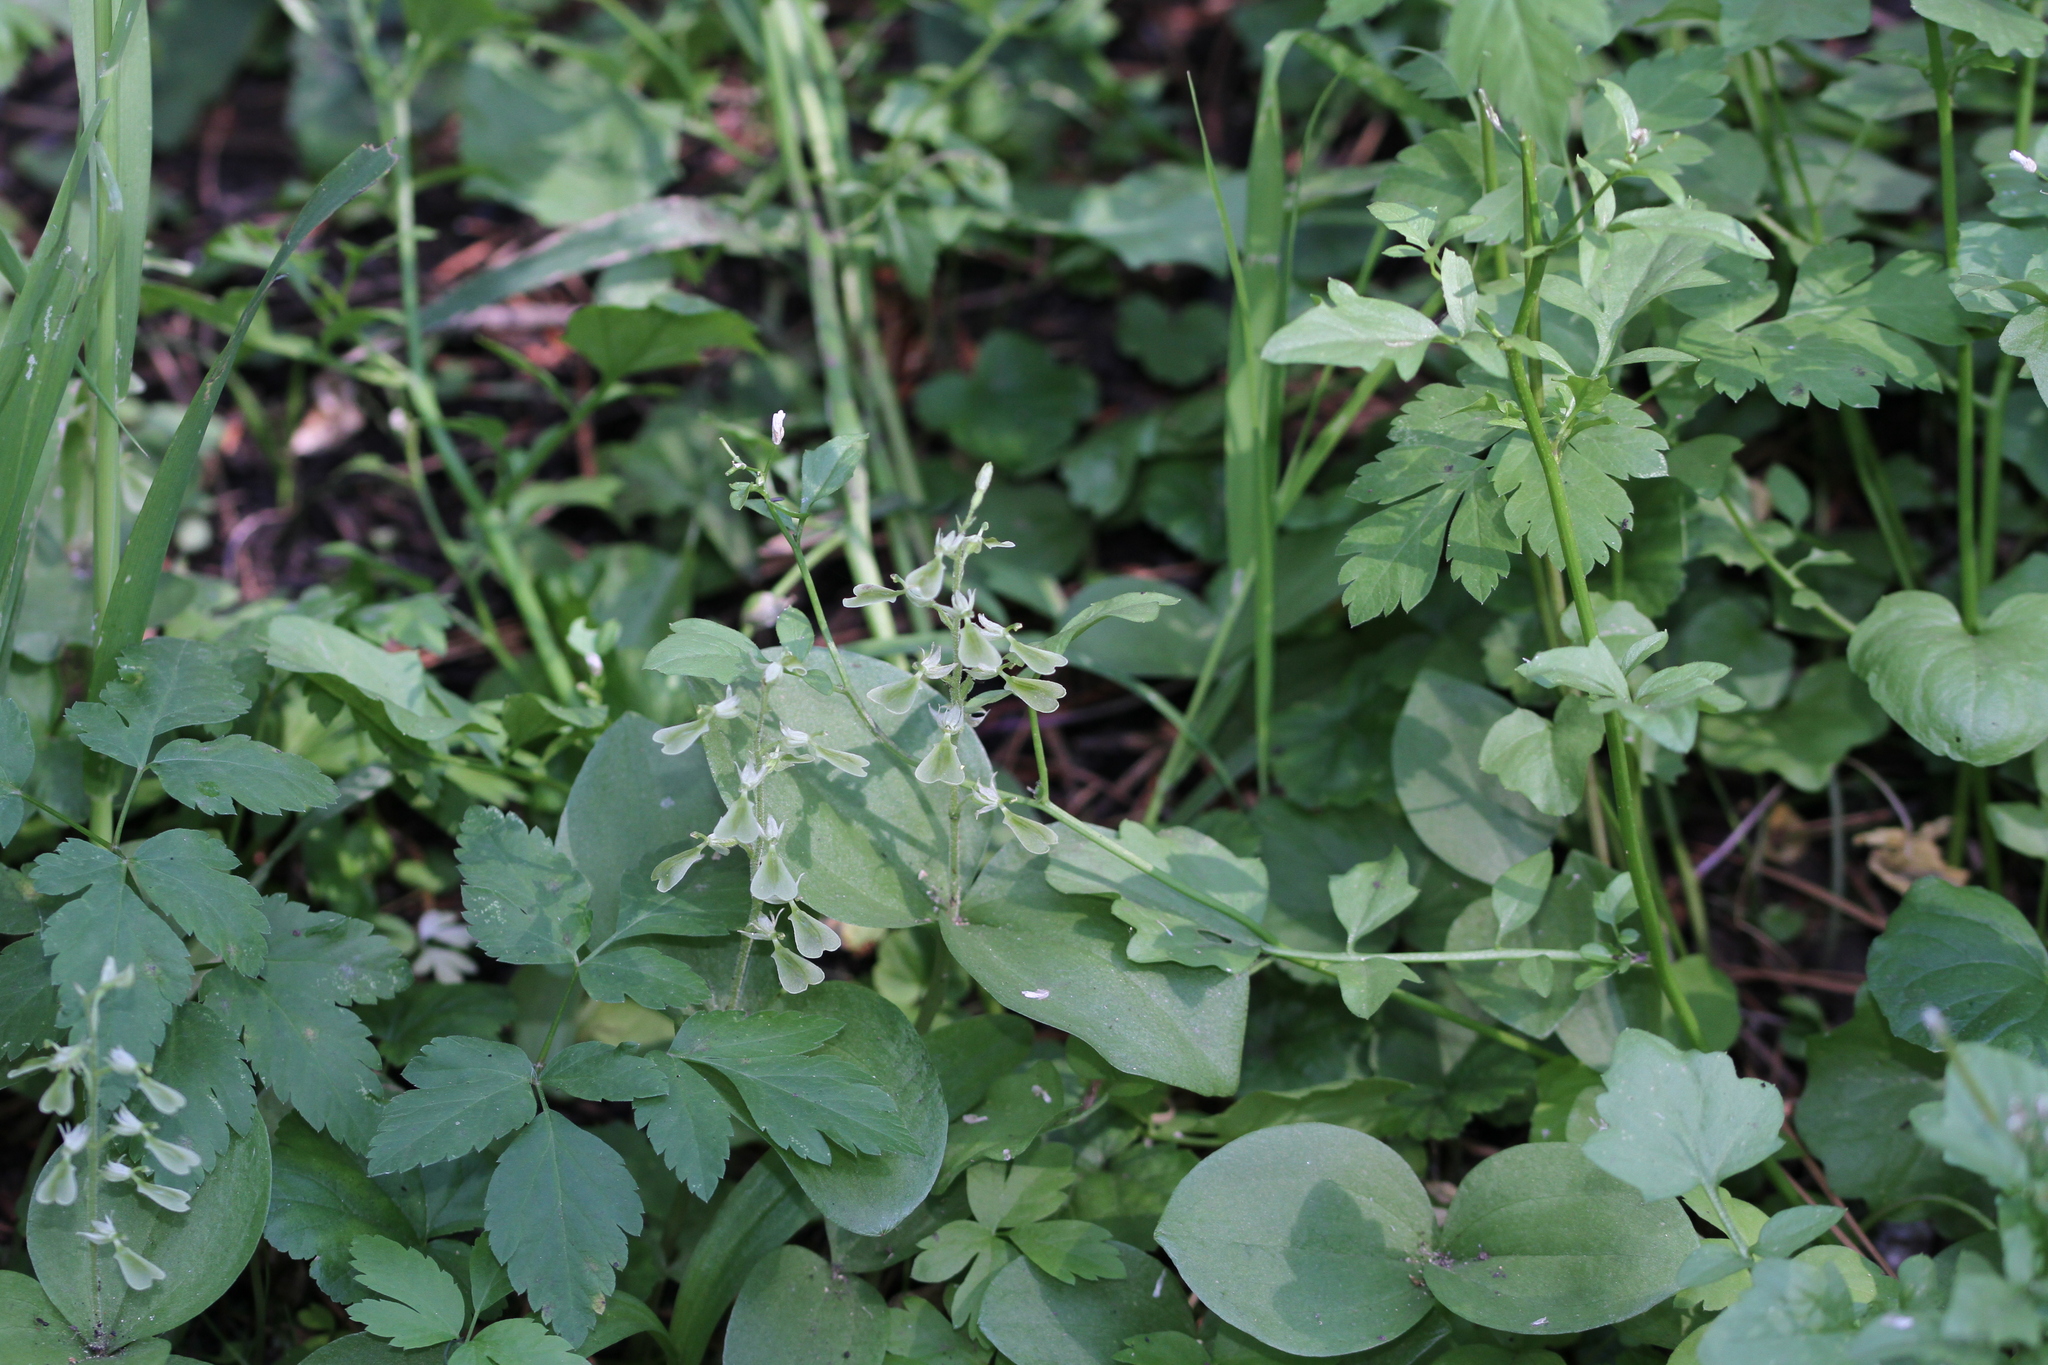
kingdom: Plantae
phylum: Tracheophyta
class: Liliopsida
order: Asparagales
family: Orchidaceae
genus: Neottia
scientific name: Neottia convallarioides
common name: Broadleaf twayblade
